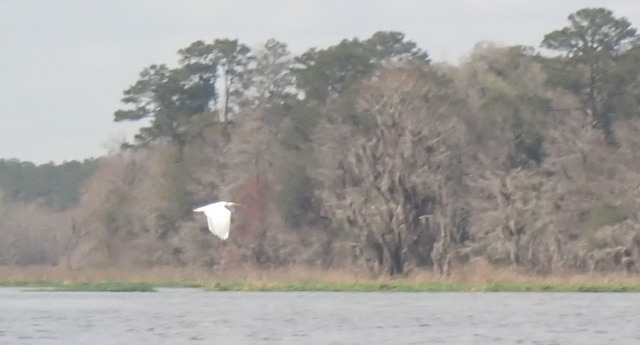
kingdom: Animalia
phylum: Chordata
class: Aves
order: Pelecaniformes
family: Ardeidae
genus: Ardea
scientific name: Ardea alba
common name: Great egret
